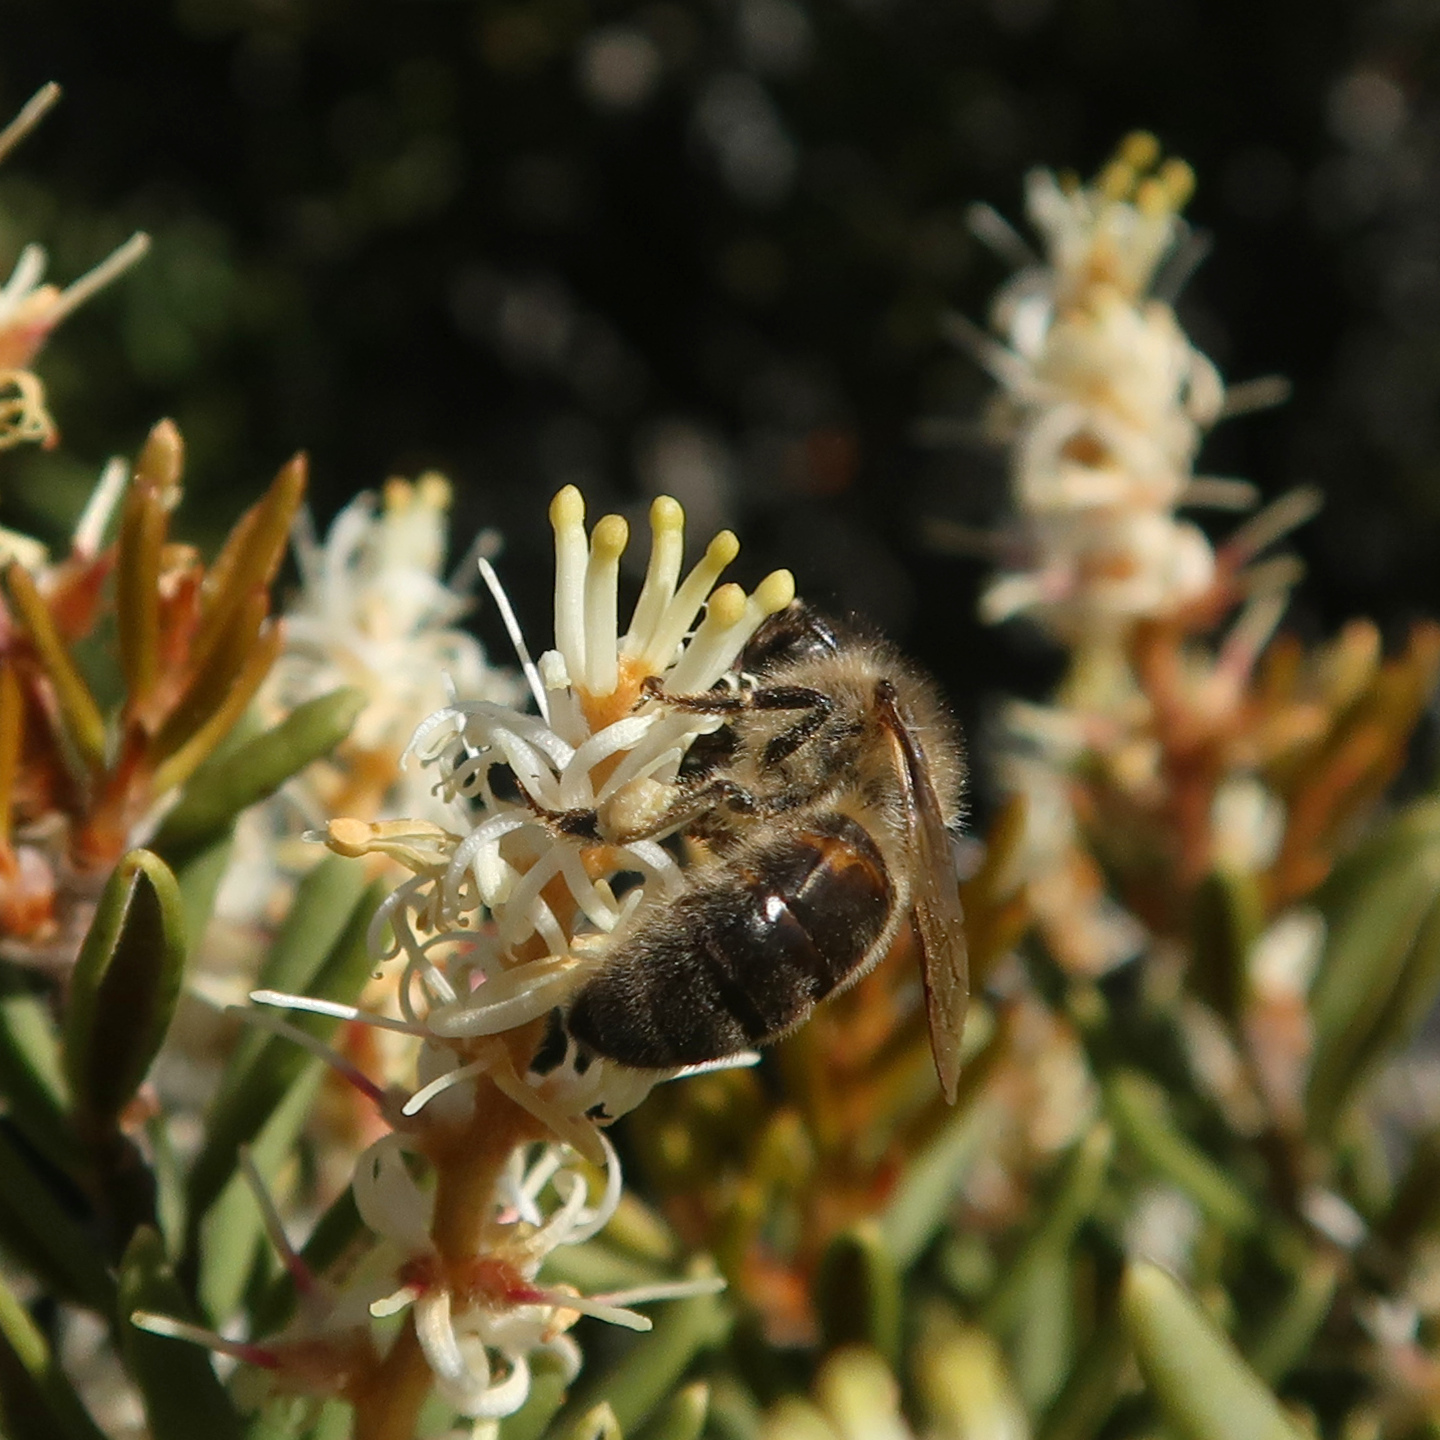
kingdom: Animalia
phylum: Arthropoda
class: Insecta
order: Hymenoptera
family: Apidae
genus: Apis
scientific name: Apis mellifera
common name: Honey bee
